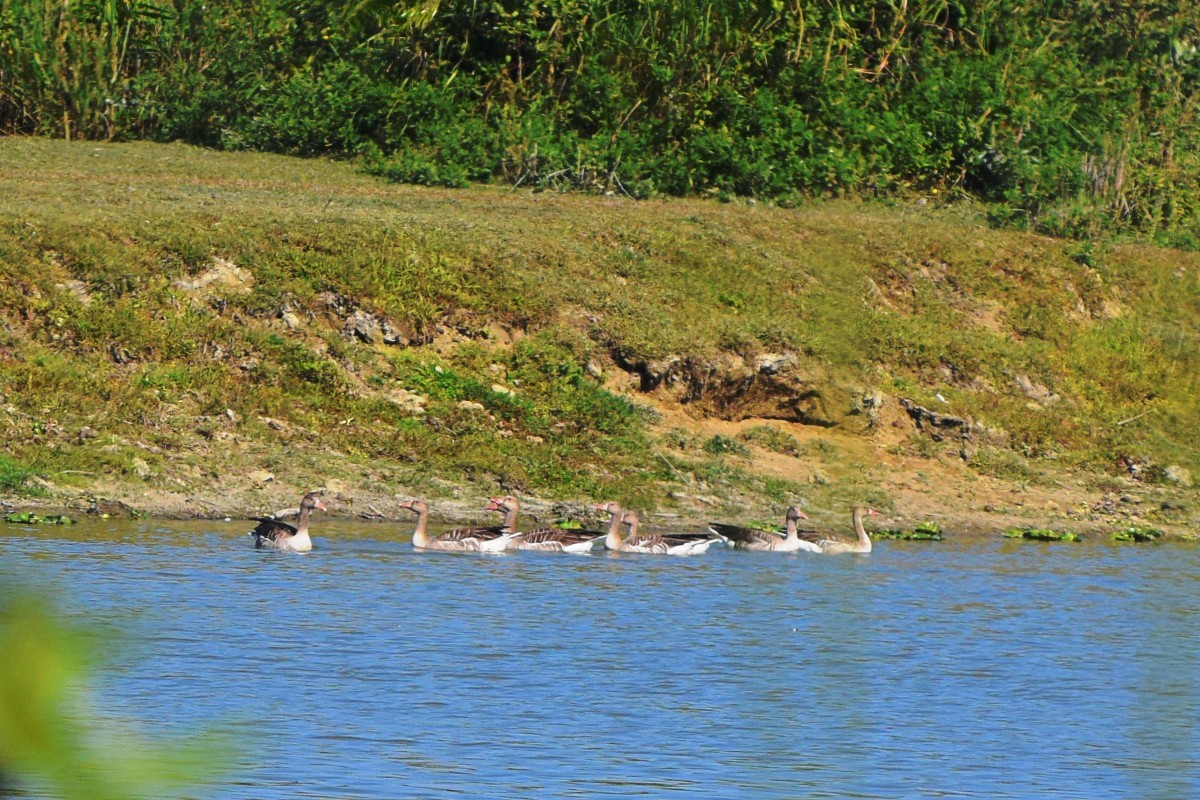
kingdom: Animalia
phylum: Chordata
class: Aves
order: Anseriformes
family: Anatidae
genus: Anser
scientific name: Anser anser
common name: Greylag goose
